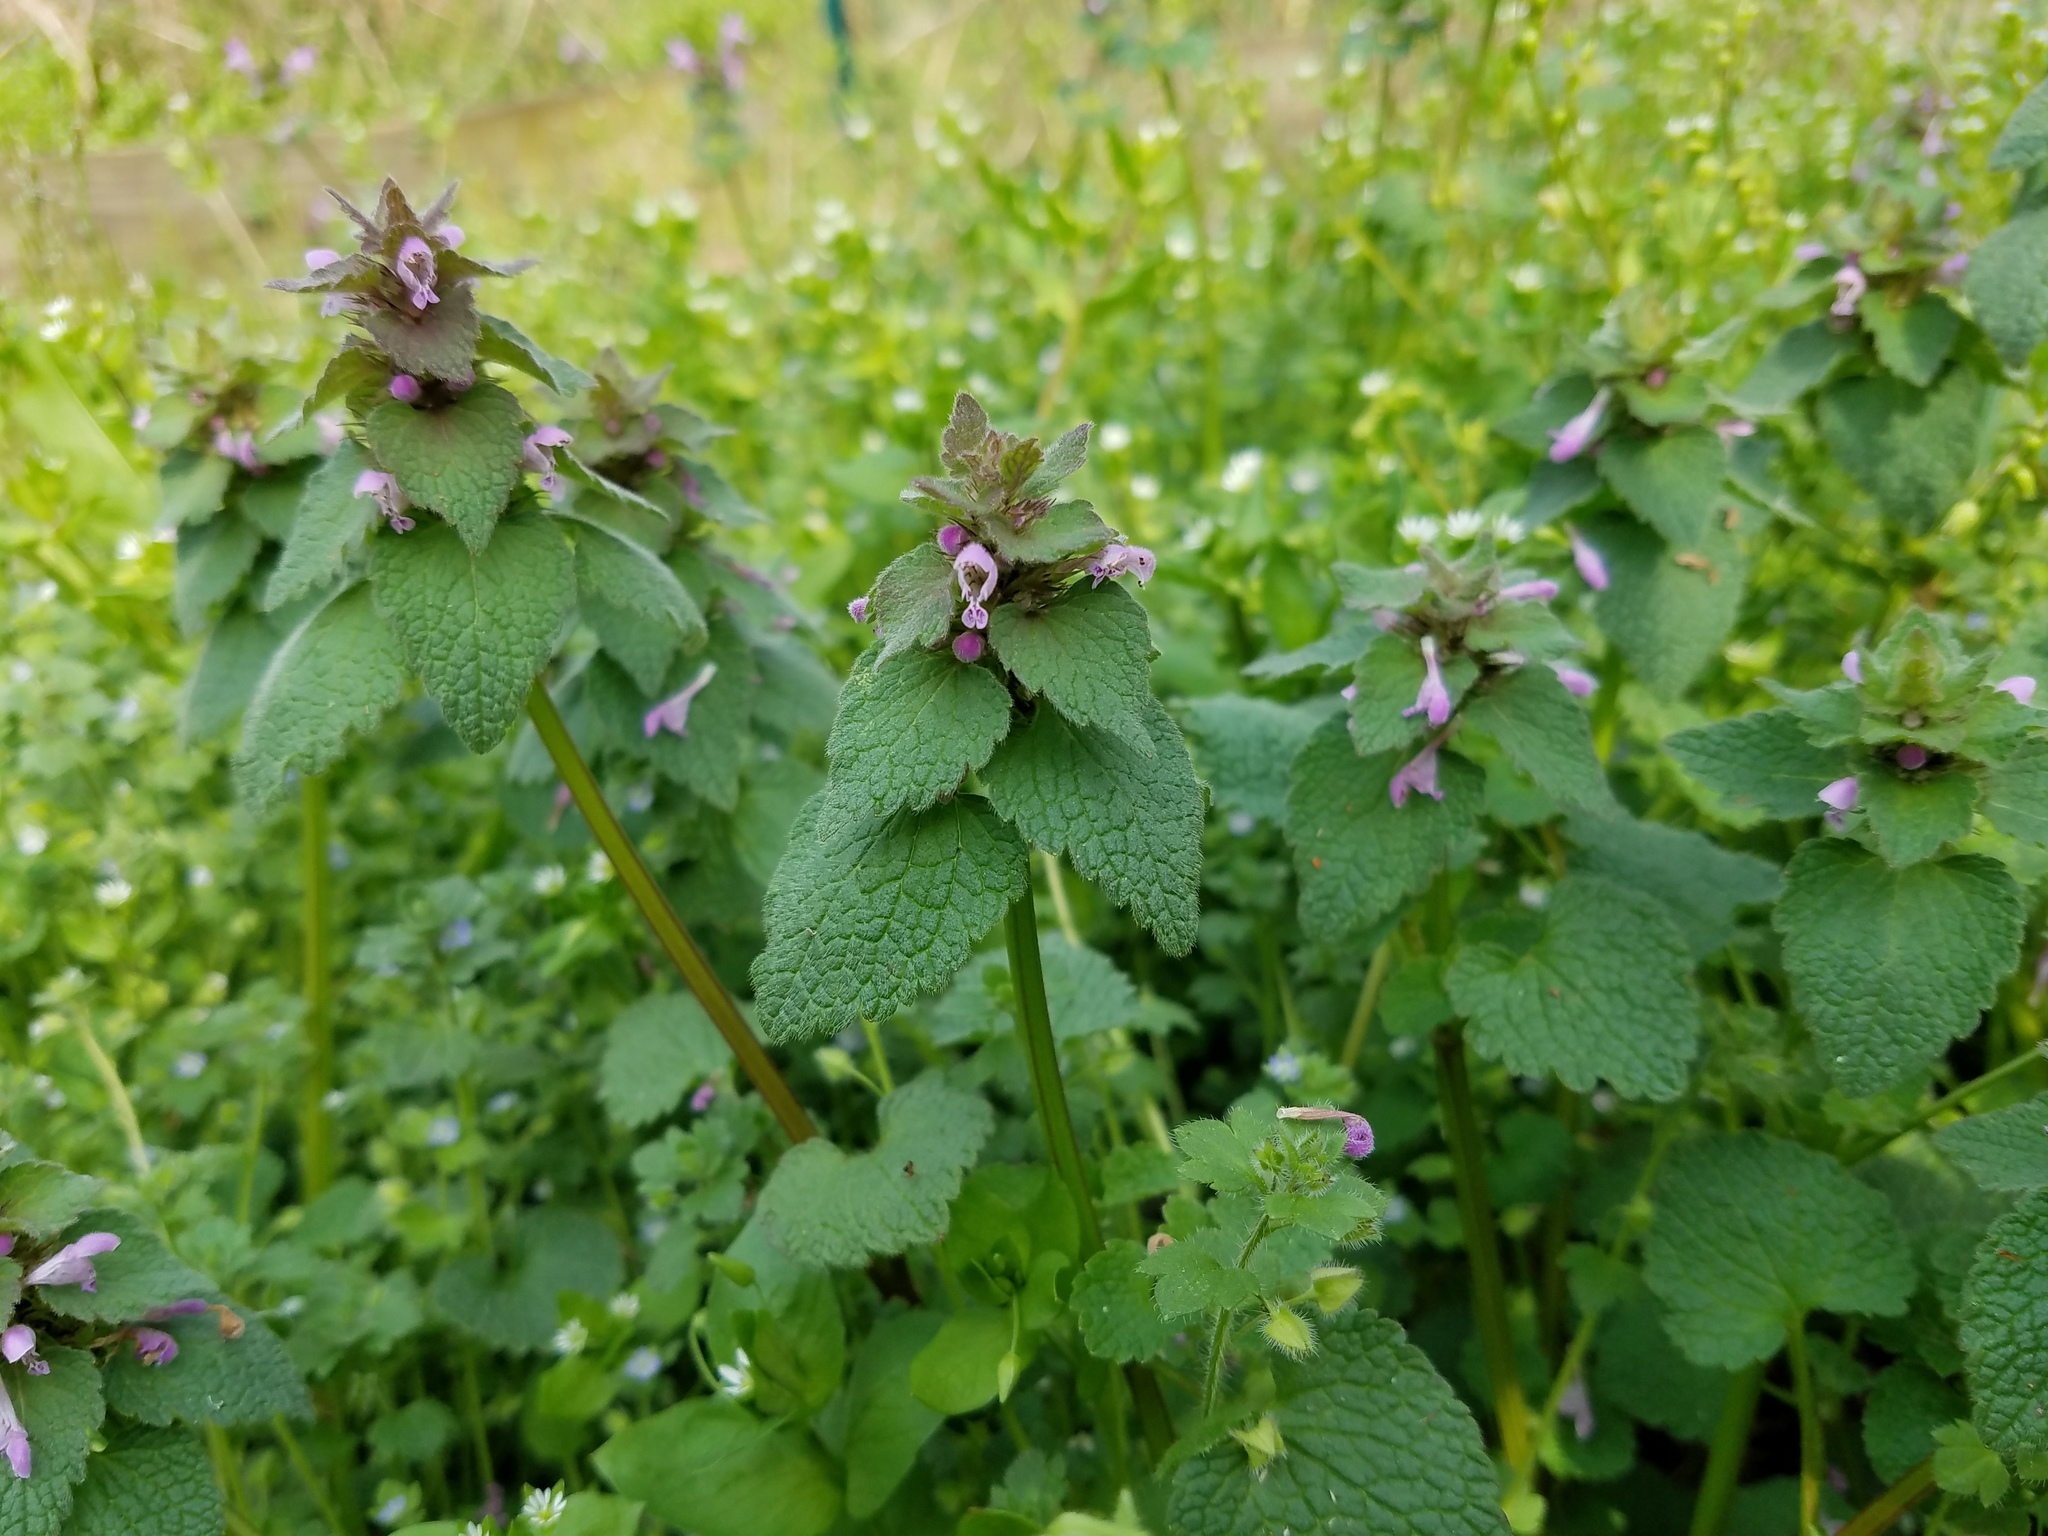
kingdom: Plantae
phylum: Tracheophyta
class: Magnoliopsida
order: Lamiales
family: Lamiaceae
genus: Lamium
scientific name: Lamium purpureum
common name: Red dead-nettle
